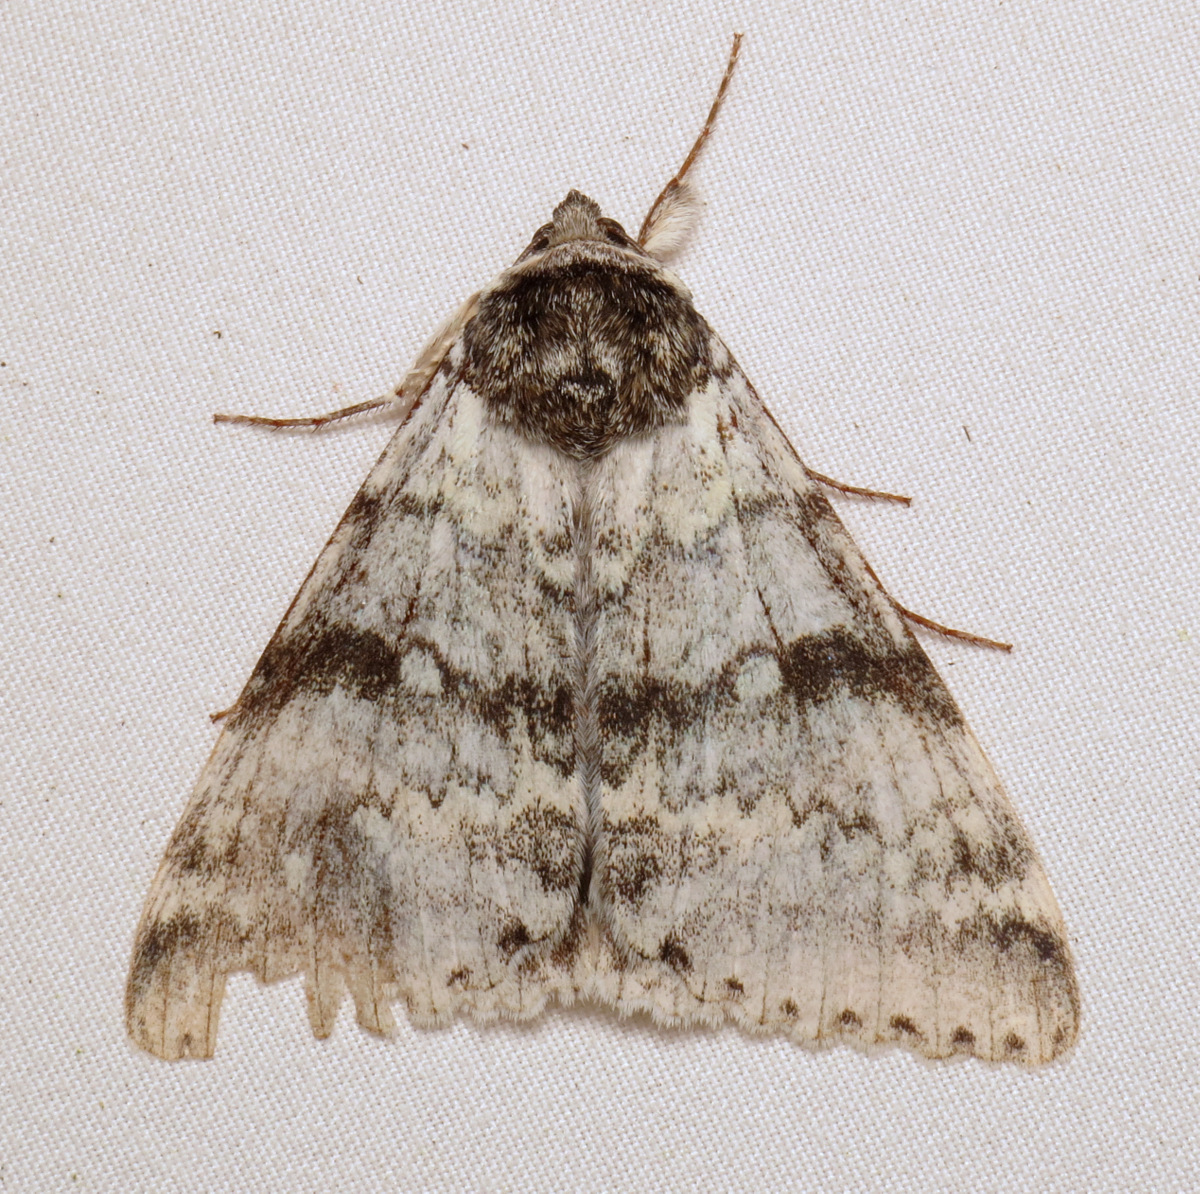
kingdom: Animalia
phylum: Arthropoda
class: Insecta
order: Lepidoptera
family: Erebidae
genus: Catocala
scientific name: Catocala relicta
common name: White underwing
